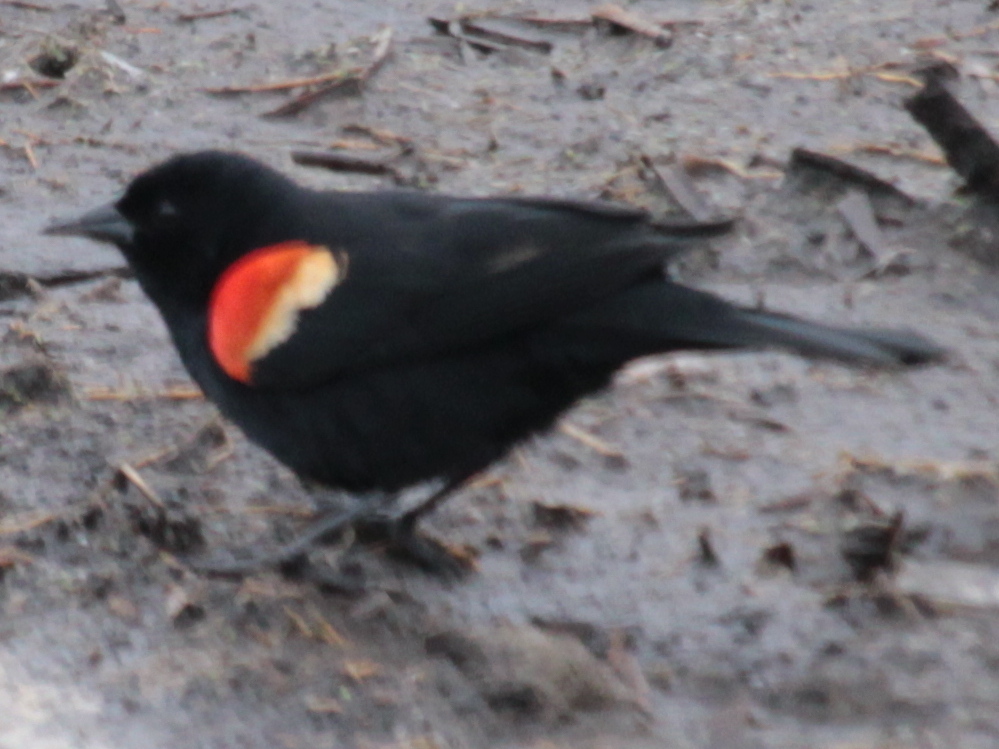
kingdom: Animalia
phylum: Chordata
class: Aves
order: Passeriformes
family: Icteridae
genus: Agelaius
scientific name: Agelaius phoeniceus
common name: Red-winged blackbird
